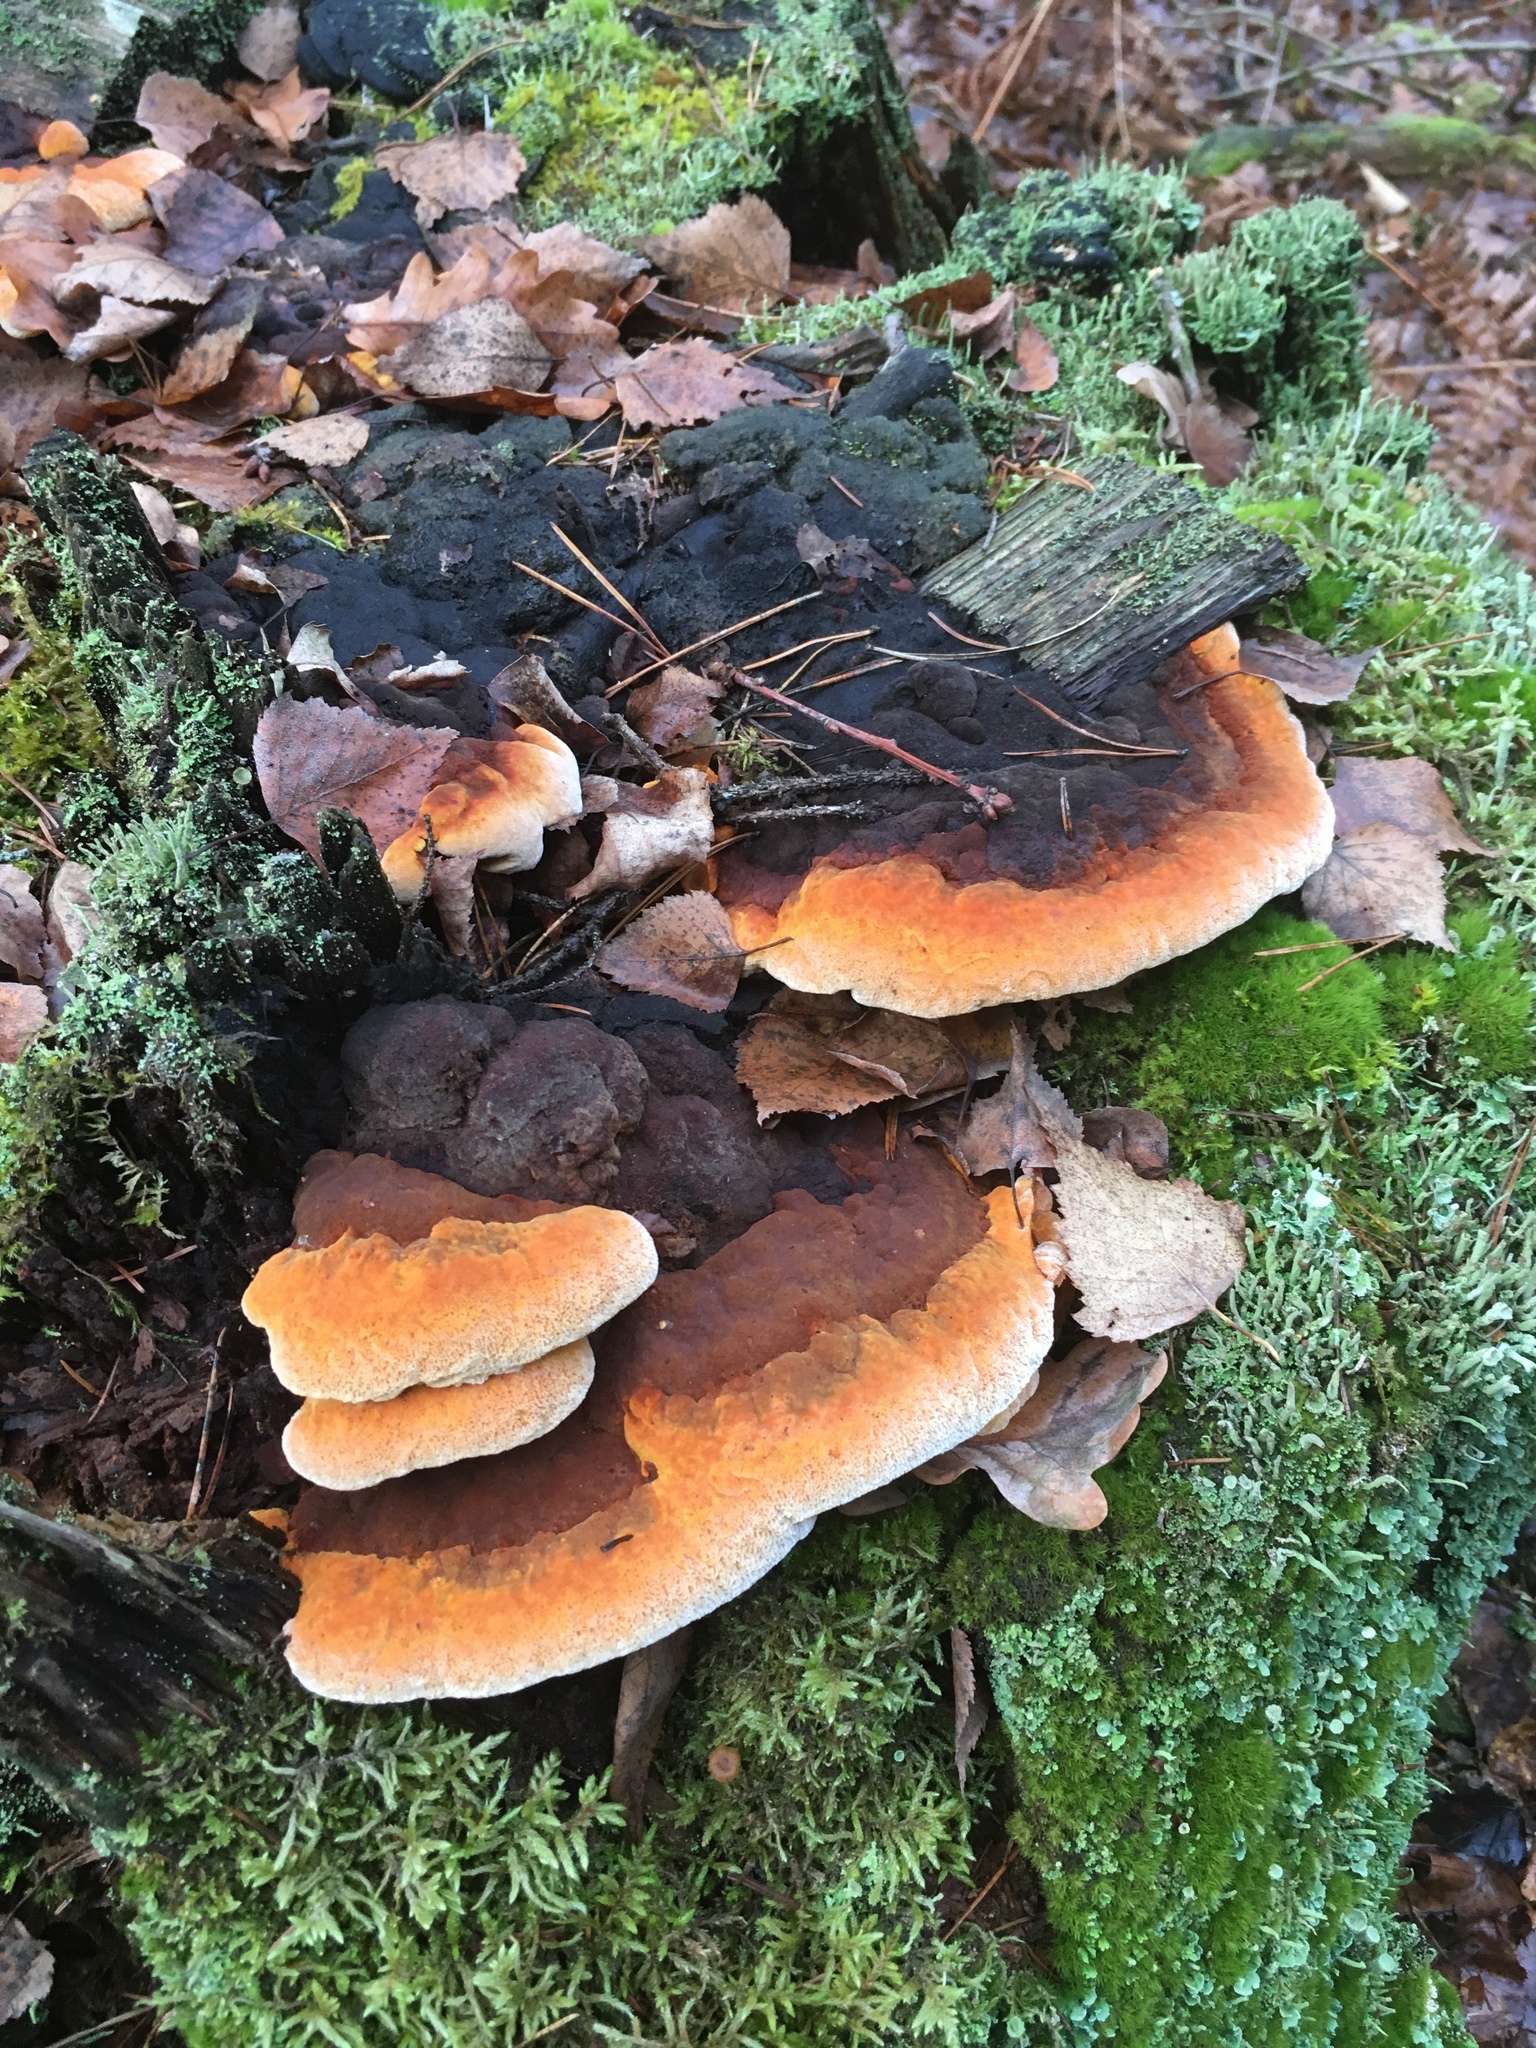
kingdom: Fungi
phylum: Basidiomycota
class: Agaricomycetes
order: Gloeophyllales
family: Gloeophyllaceae
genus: Gloeophyllum
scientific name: Gloeophyllum odoratum
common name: Anise mazegill
